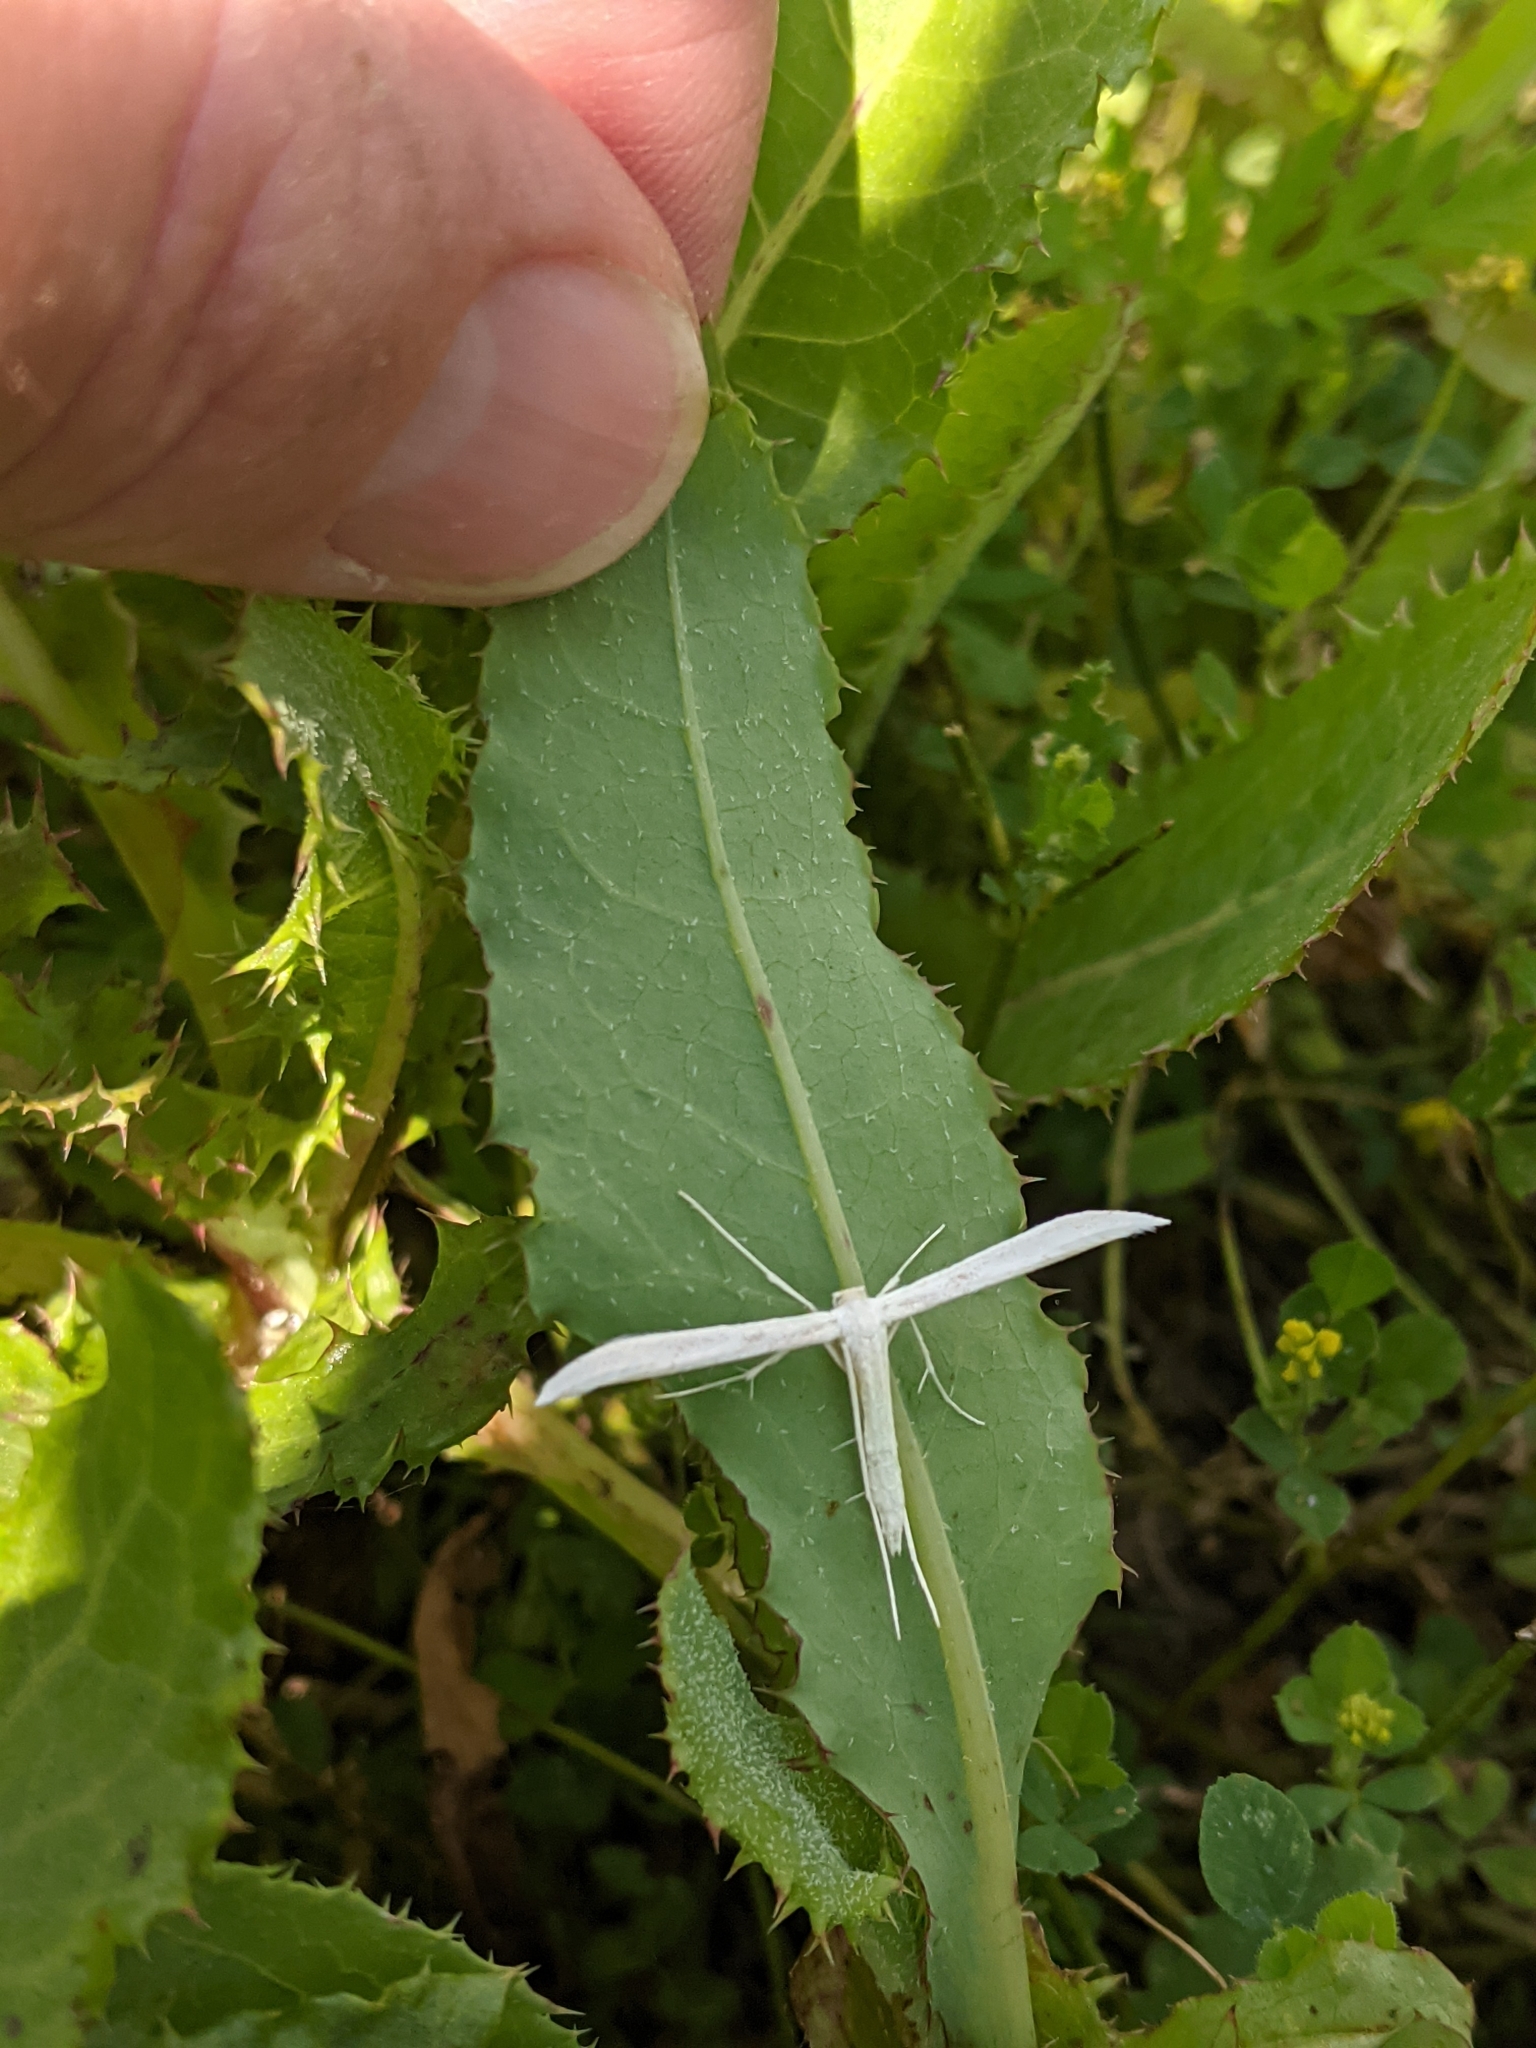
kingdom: Animalia
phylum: Arthropoda
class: Insecta
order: Lepidoptera
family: Pterophoridae
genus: Hellinsia
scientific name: Hellinsia homodactylus
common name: Plain plume moth
